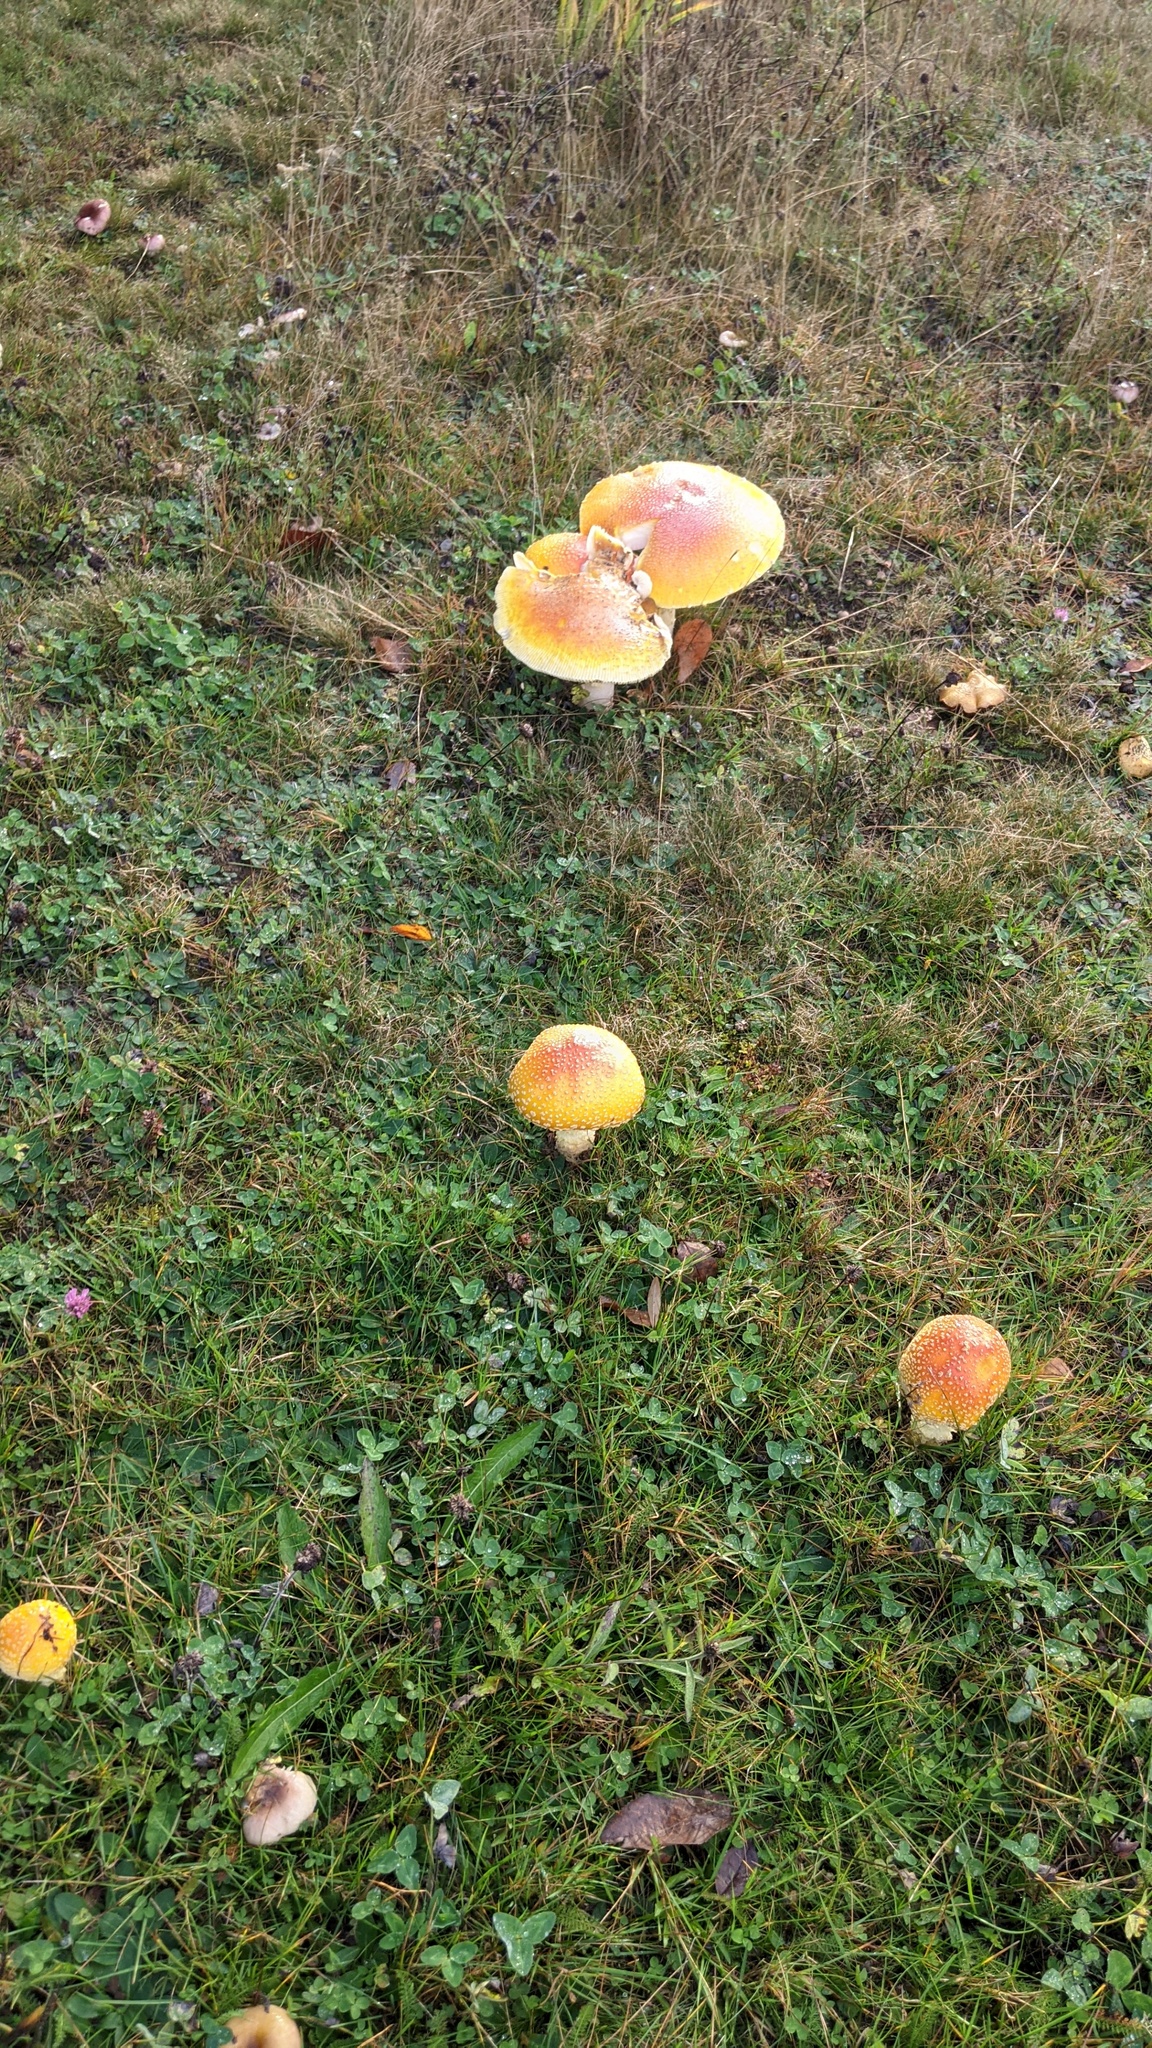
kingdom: Fungi
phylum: Basidiomycota
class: Agaricomycetes
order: Agaricales
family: Amanitaceae
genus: Amanita
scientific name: Amanita muscaria
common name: Fly agaric
